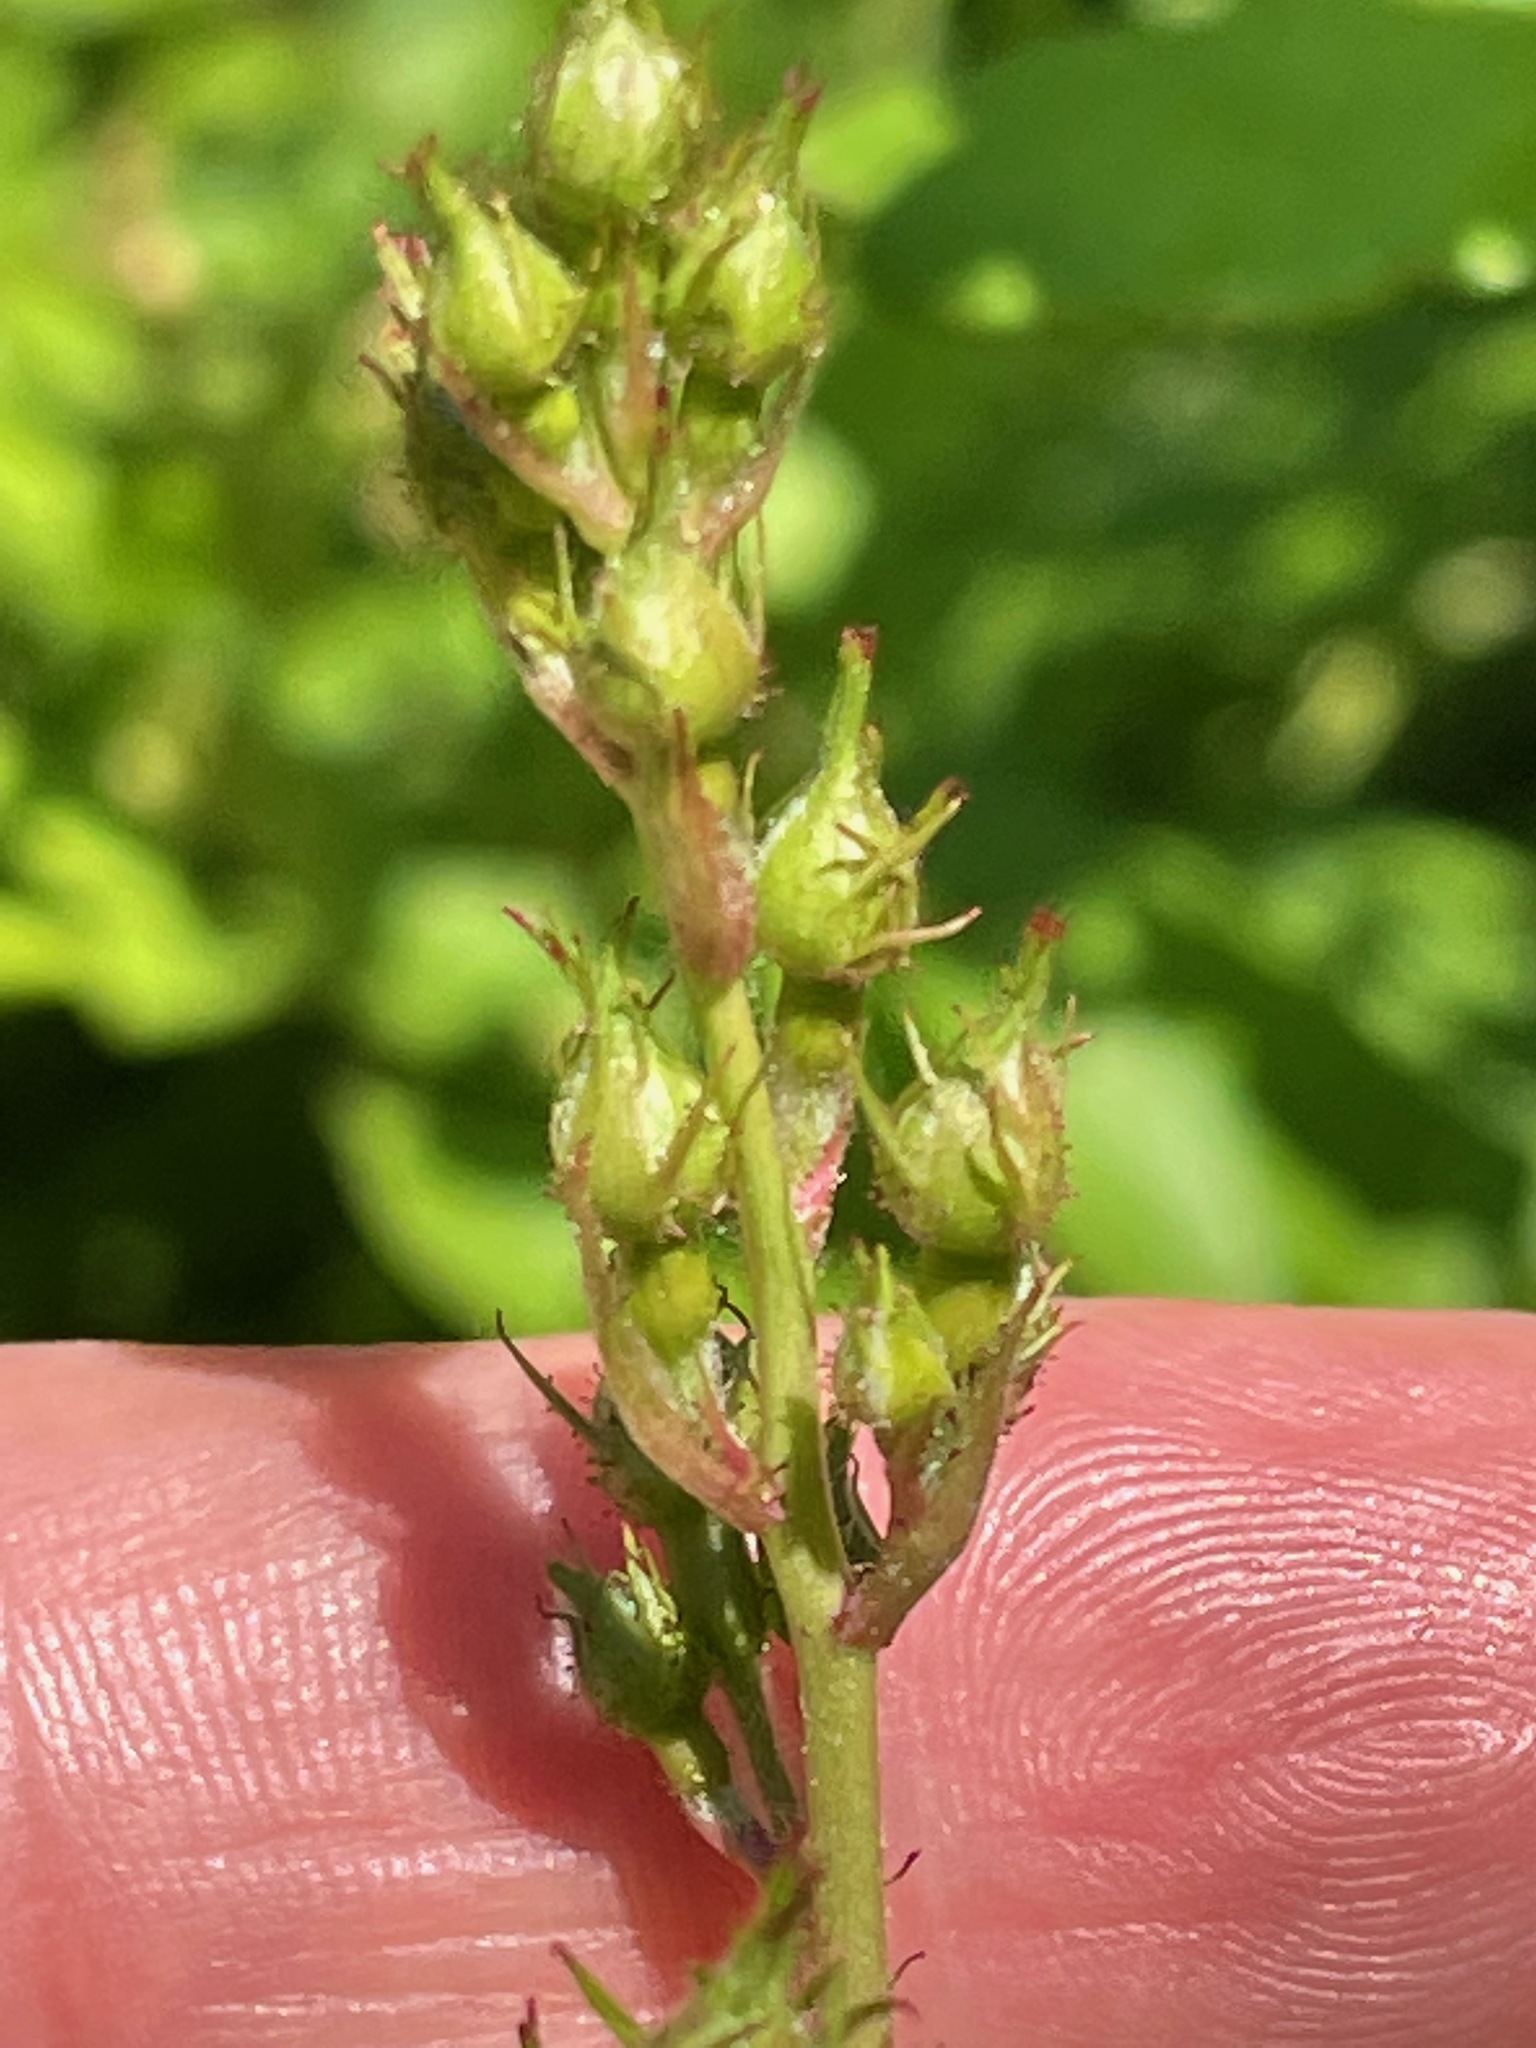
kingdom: Plantae
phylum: Tracheophyta
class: Magnoliopsida
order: Rosales
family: Rosaceae
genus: Rosa
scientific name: Rosa multiflora
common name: Multiflora rose
